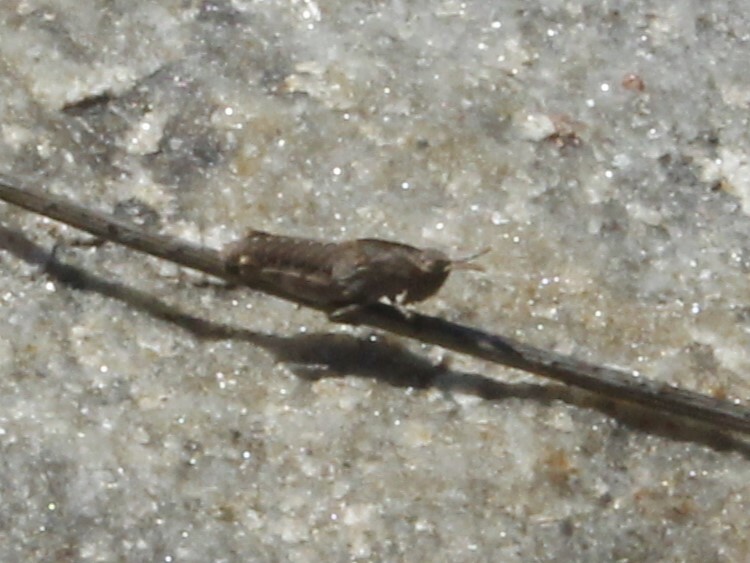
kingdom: Animalia
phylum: Arthropoda
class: Insecta
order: Orthoptera
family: Acrididae
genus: Chortophaga
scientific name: Chortophaga viridifasciata
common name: Green-striped grasshopper
